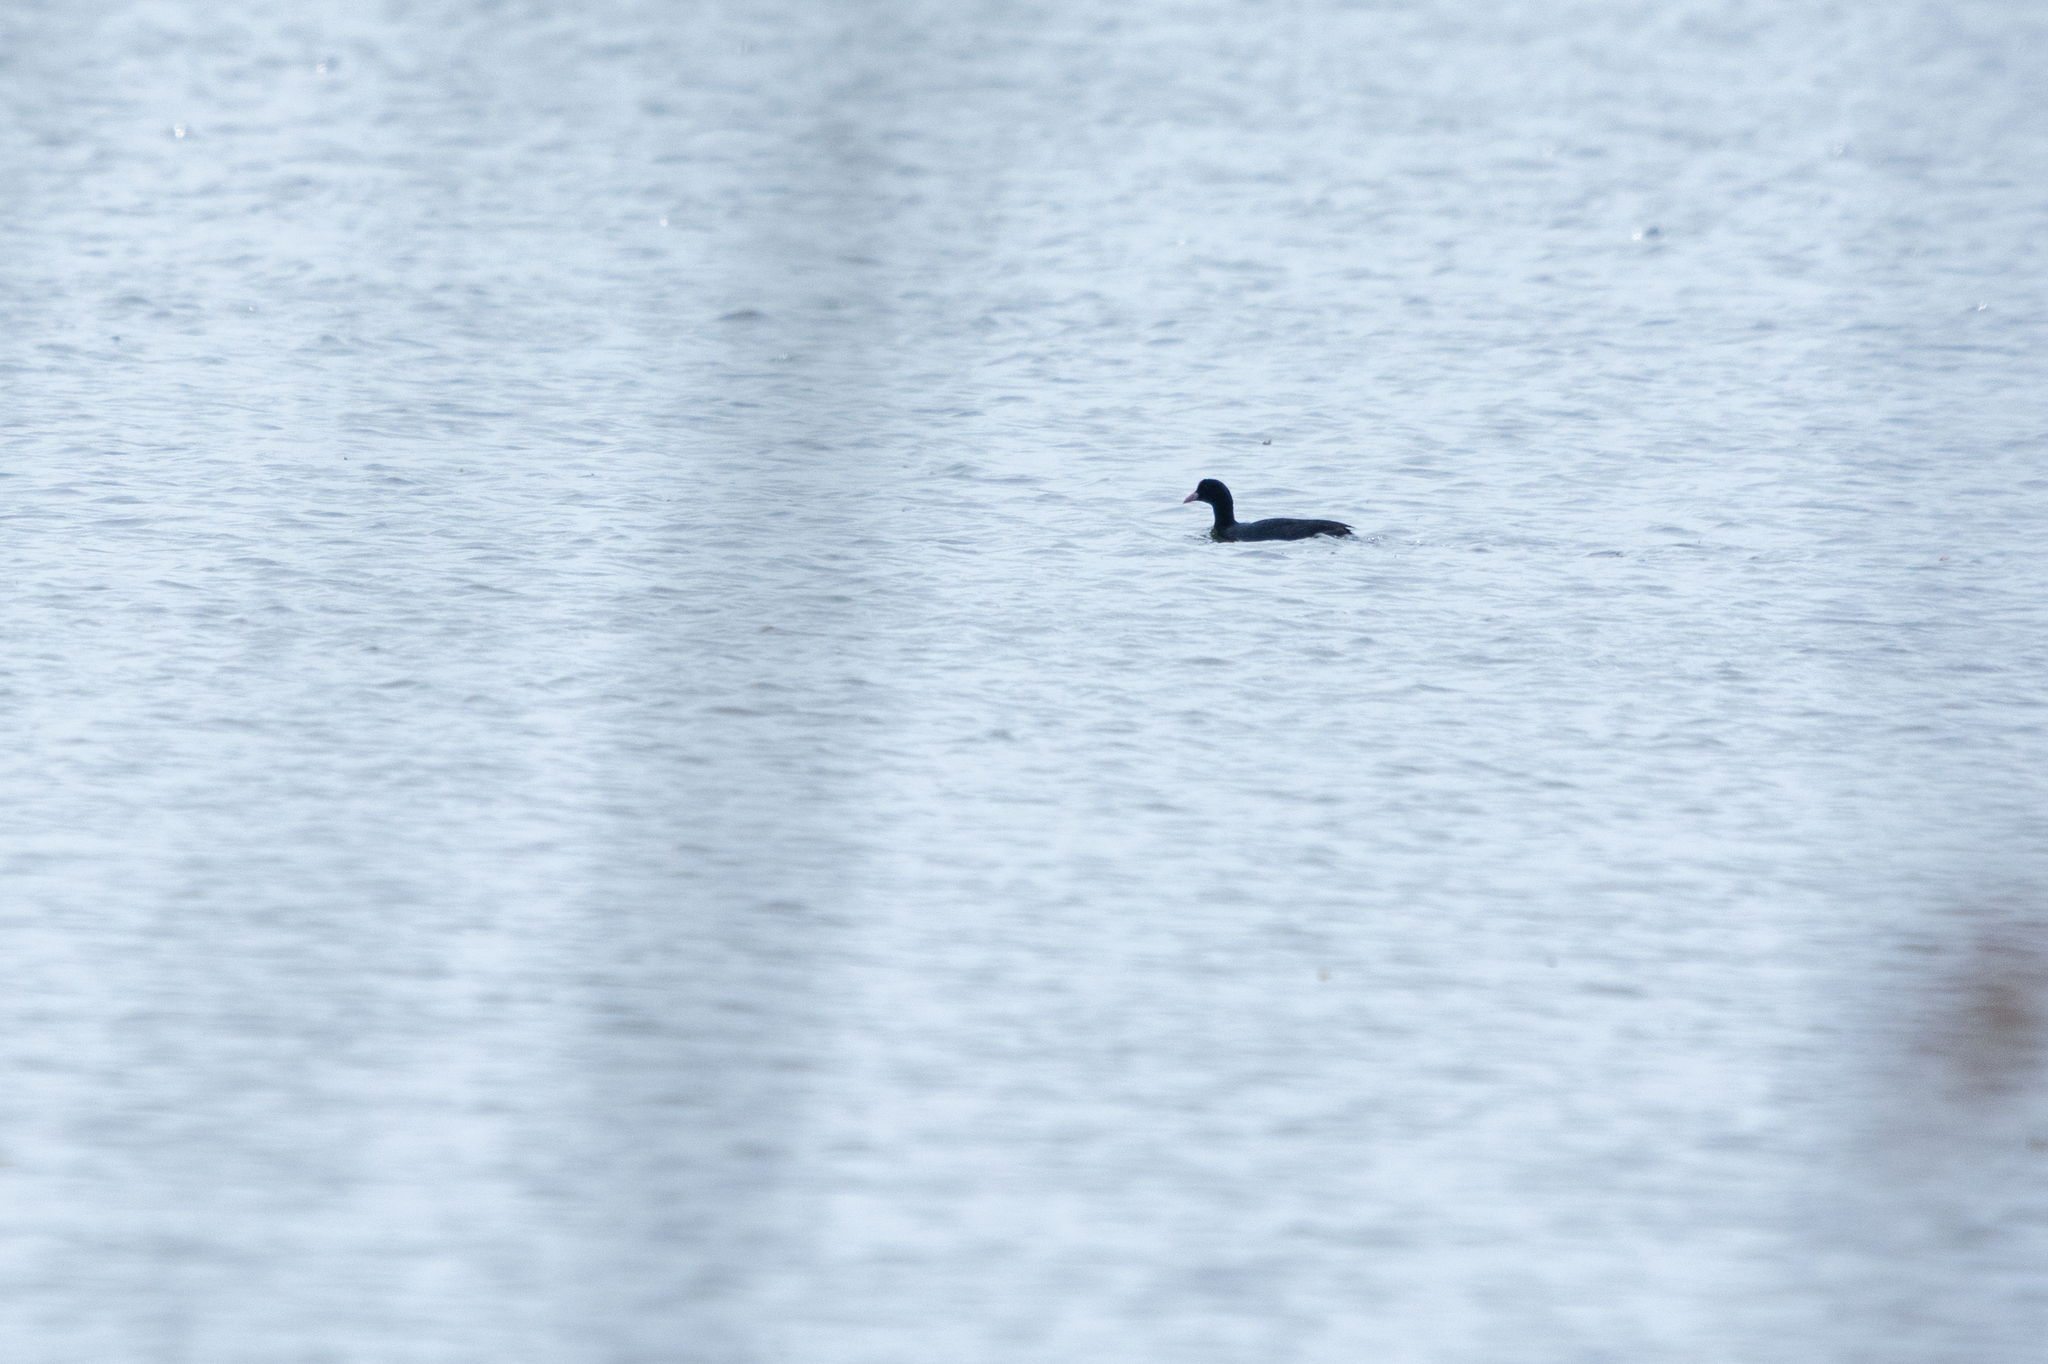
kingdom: Animalia
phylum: Chordata
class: Aves
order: Gruiformes
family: Rallidae
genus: Fulica
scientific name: Fulica atra
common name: Eurasian coot
